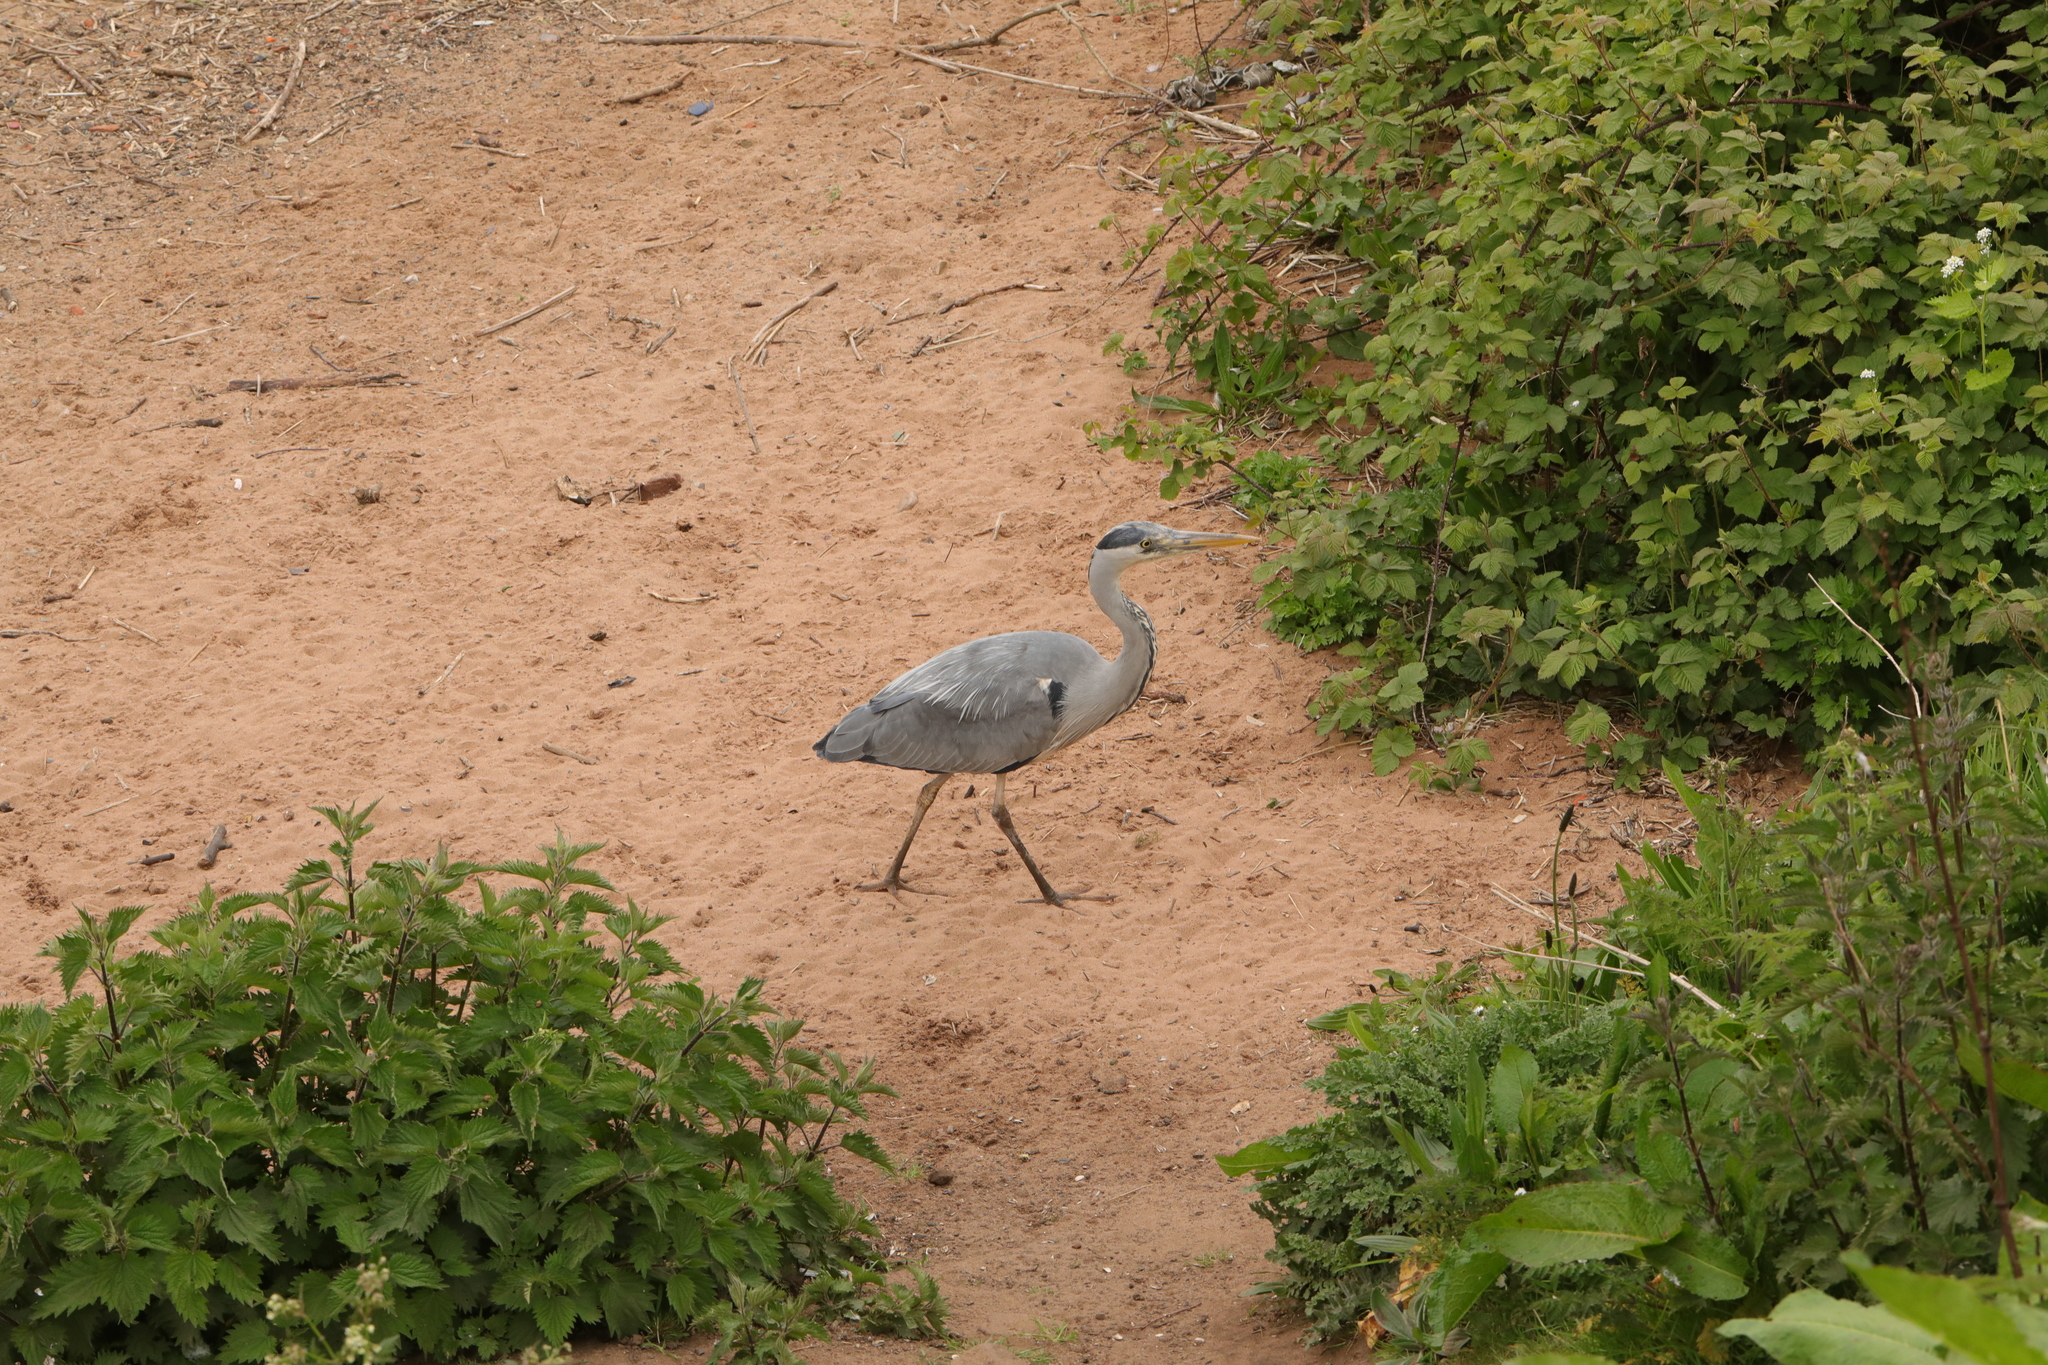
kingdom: Animalia
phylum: Chordata
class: Aves
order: Pelecaniformes
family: Ardeidae
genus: Ardea
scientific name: Ardea cinerea
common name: Grey heron
